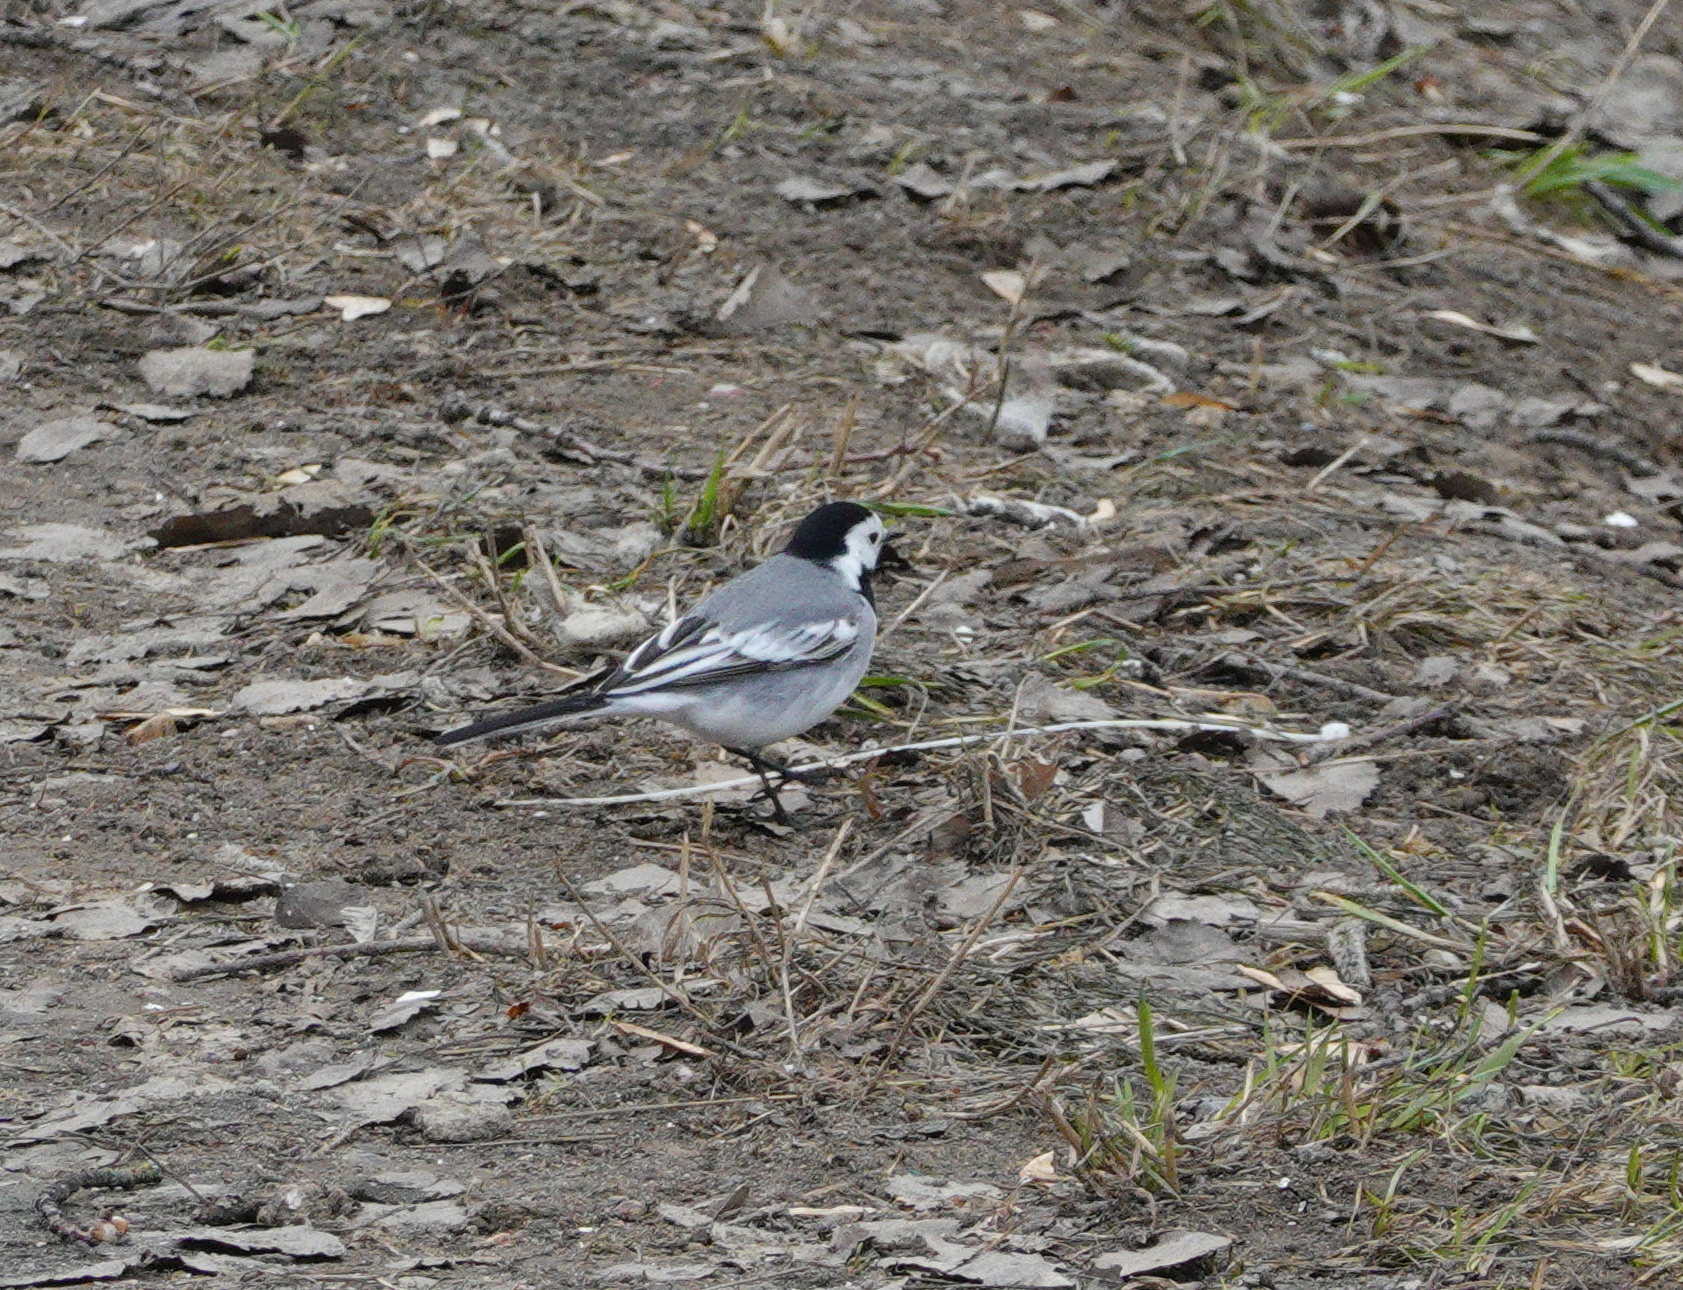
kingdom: Animalia
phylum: Chordata
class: Aves
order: Passeriformes
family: Motacillidae
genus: Motacilla
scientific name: Motacilla alba
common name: White wagtail
